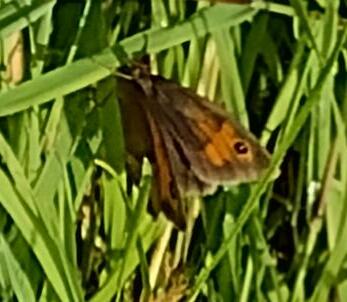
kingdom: Animalia
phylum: Arthropoda
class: Insecta
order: Lepidoptera
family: Nymphalidae
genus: Maniola
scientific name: Maniola jurtina
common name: Meadow brown
